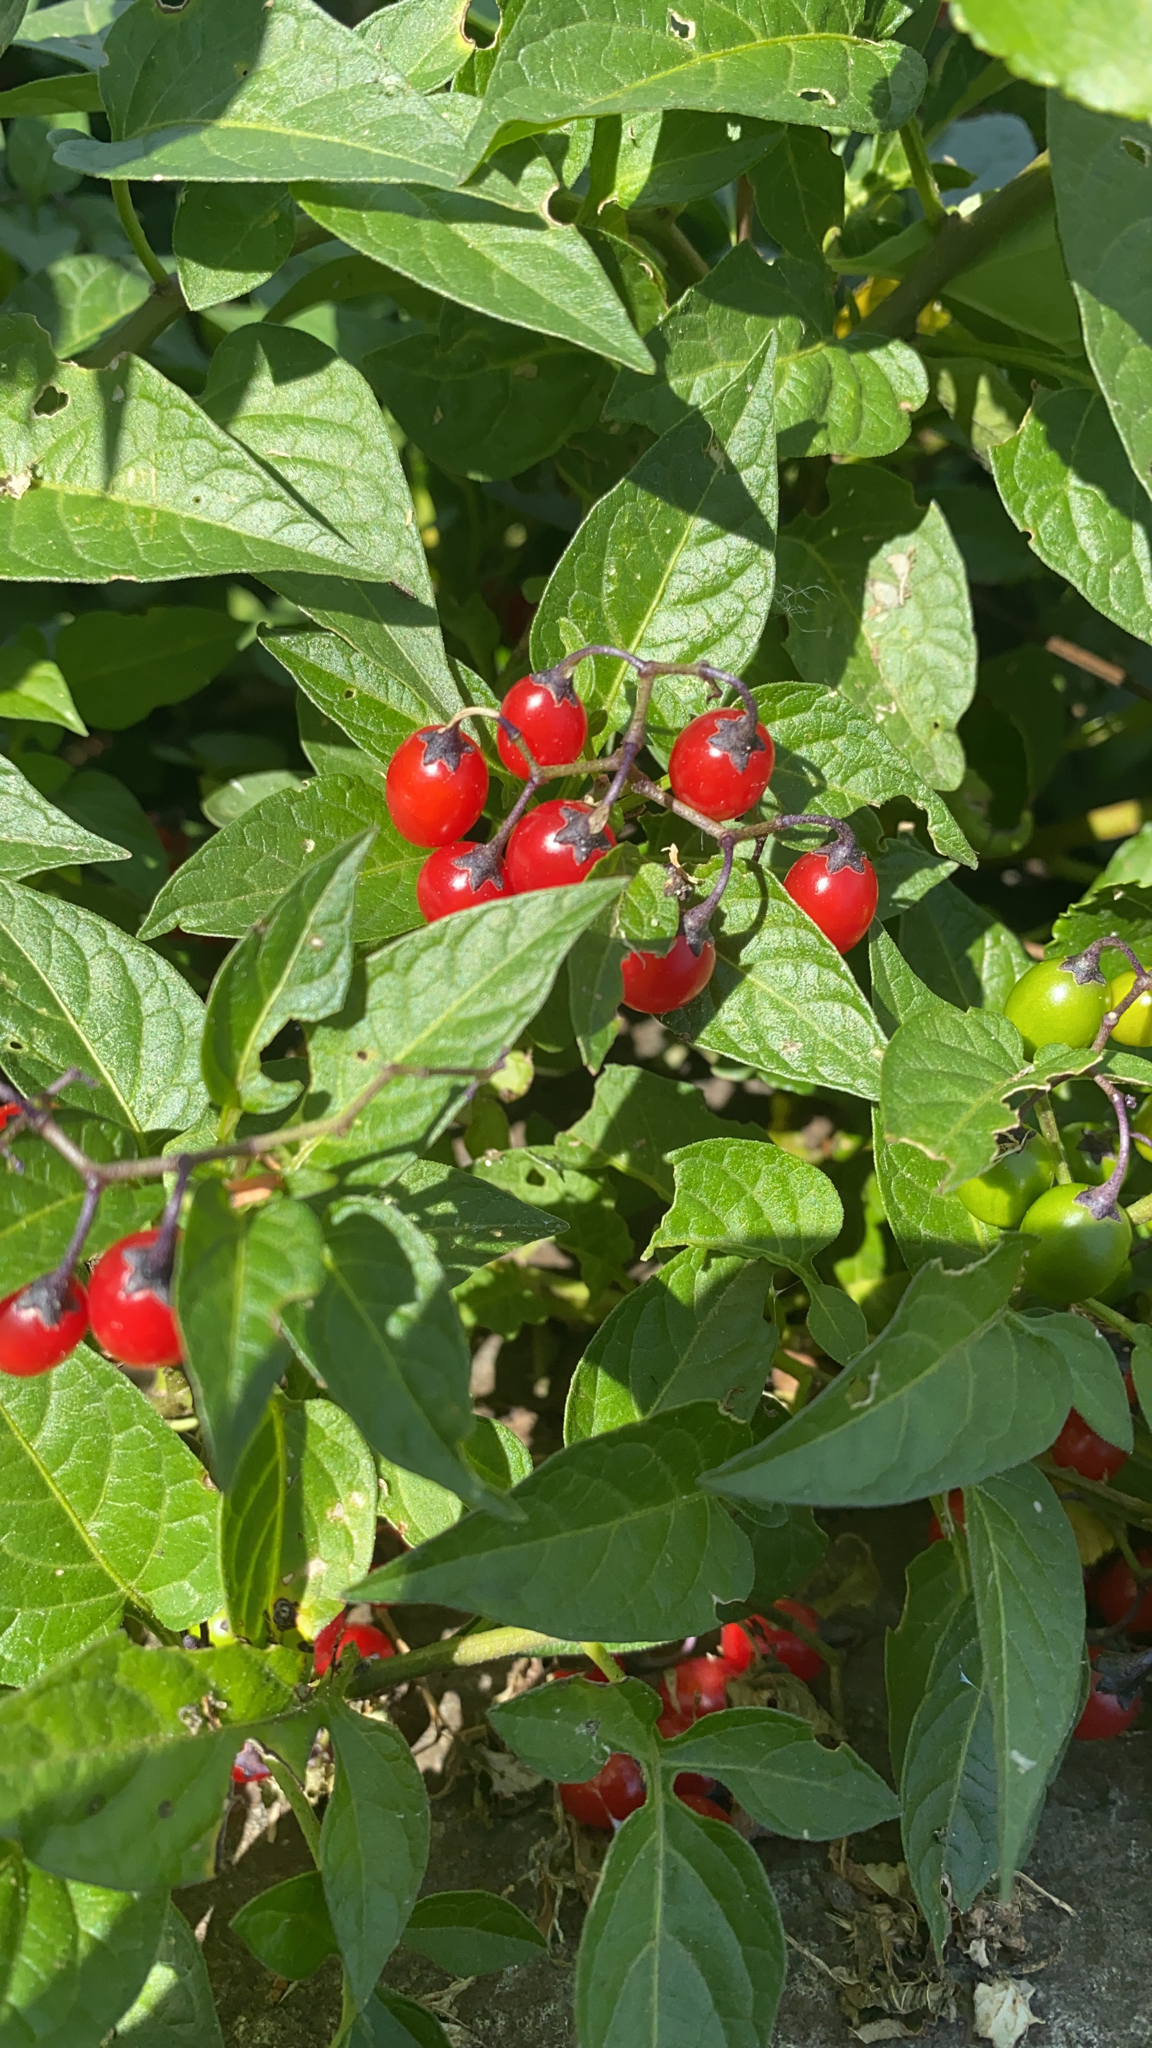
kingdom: Plantae
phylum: Tracheophyta
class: Magnoliopsida
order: Solanales
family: Solanaceae
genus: Solanum
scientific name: Solanum dulcamara
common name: Climbing nightshade
